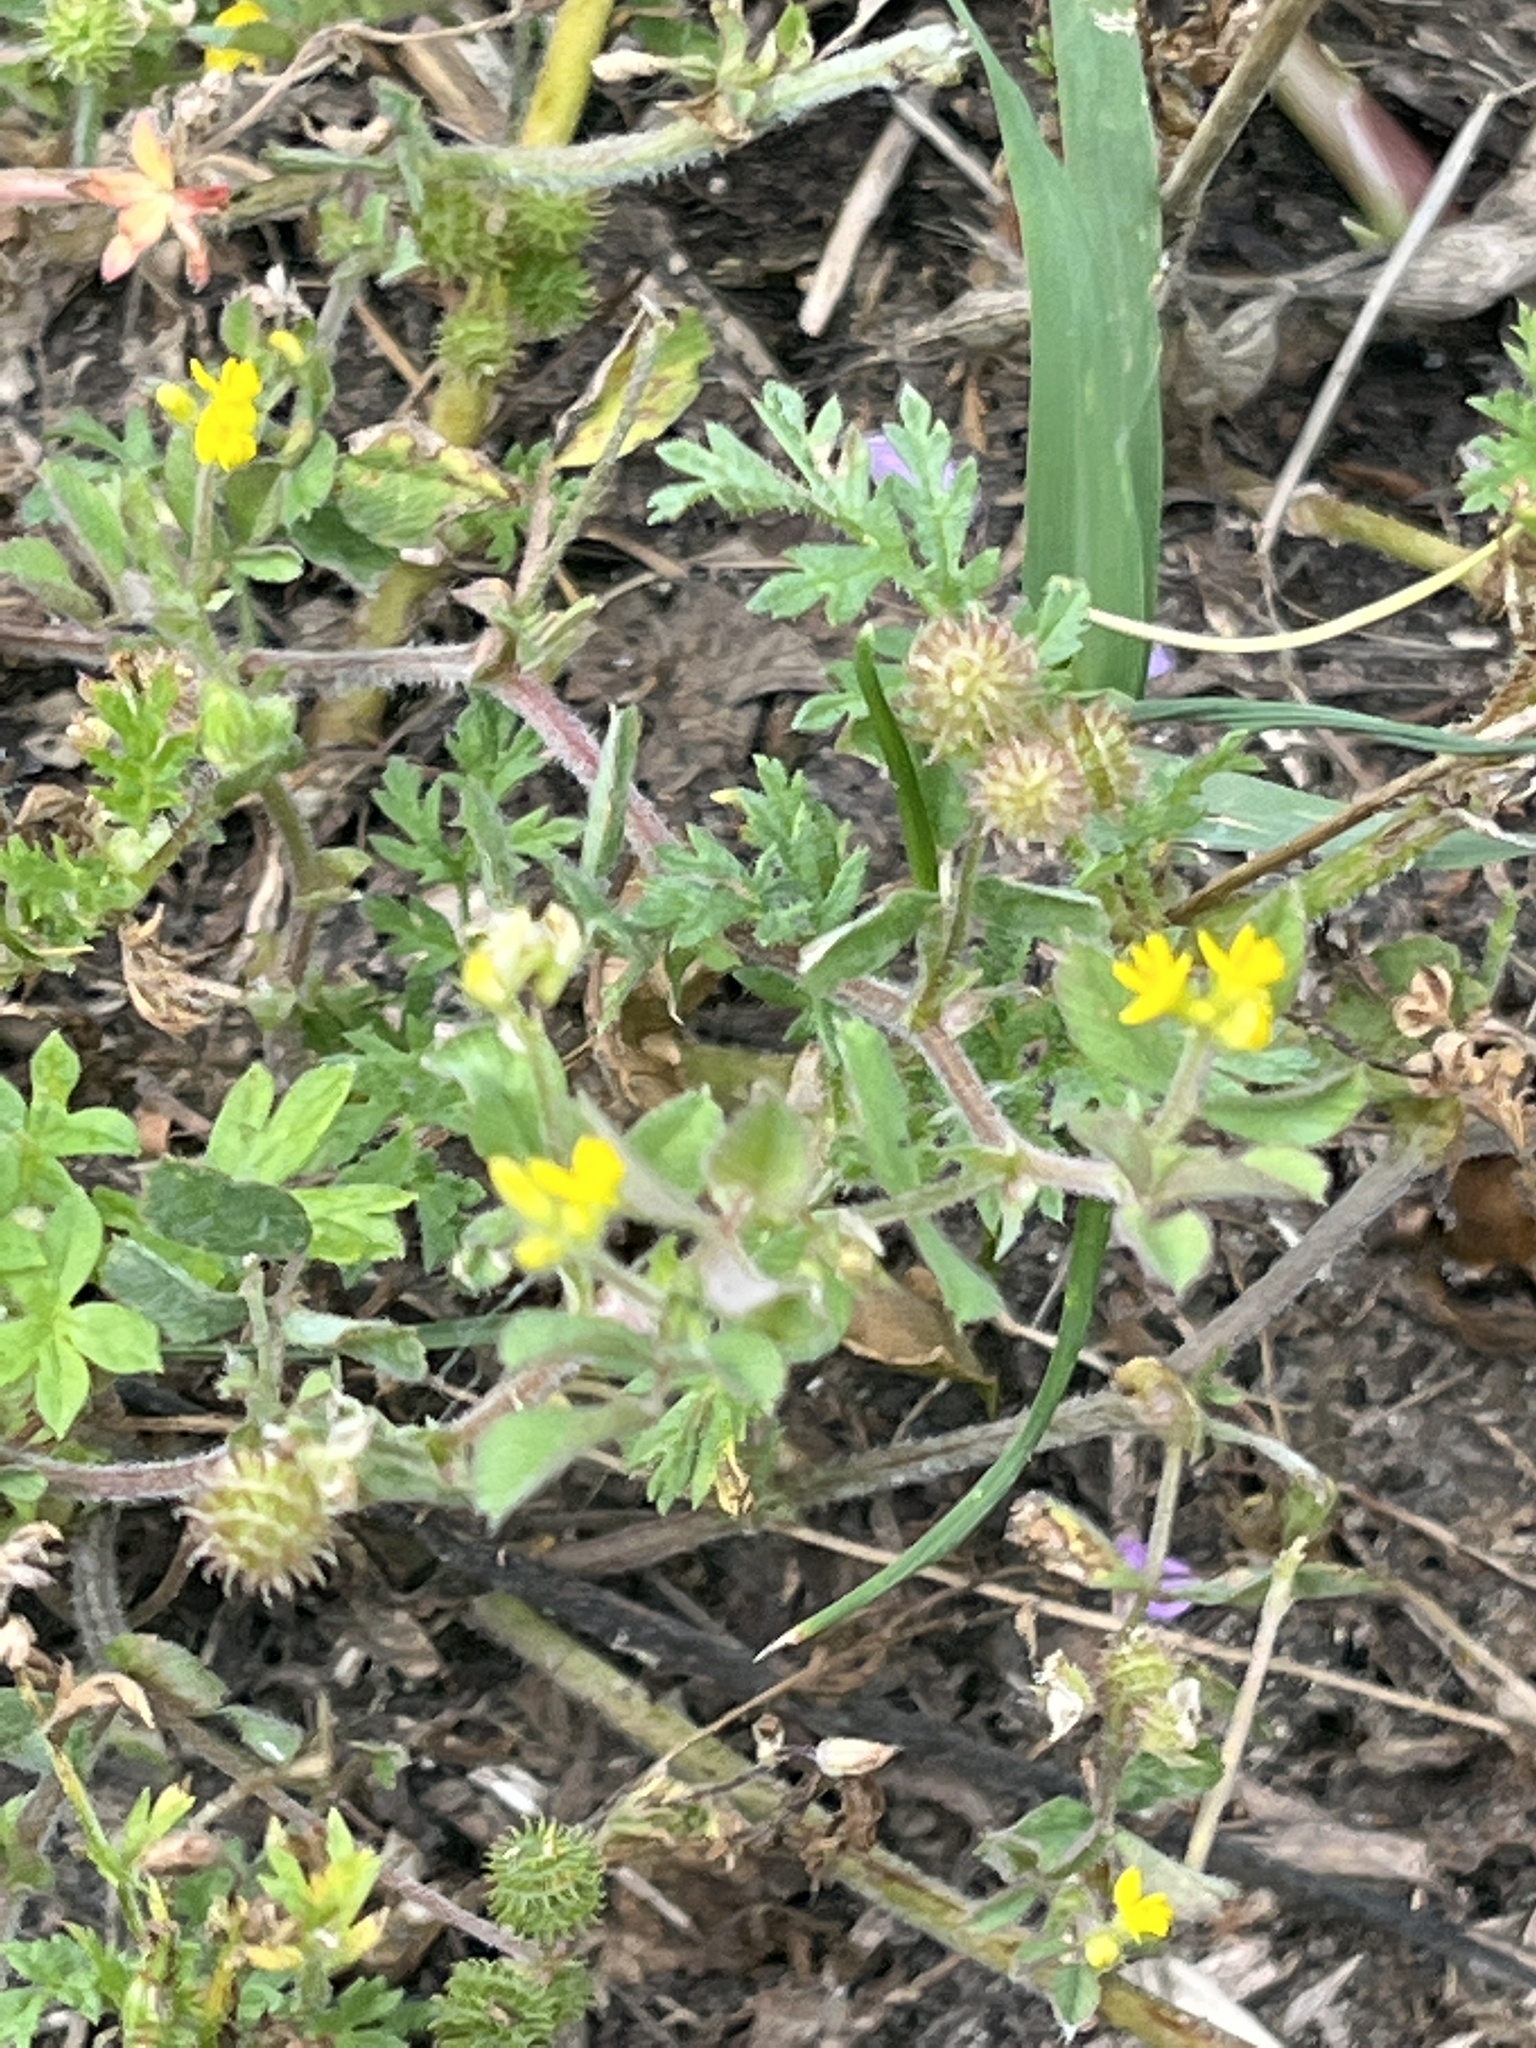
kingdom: Plantae
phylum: Tracheophyta
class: Magnoliopsida
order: Fabales
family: Fabaceae
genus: Medicago
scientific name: Medicago minima
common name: Little bur-clover
